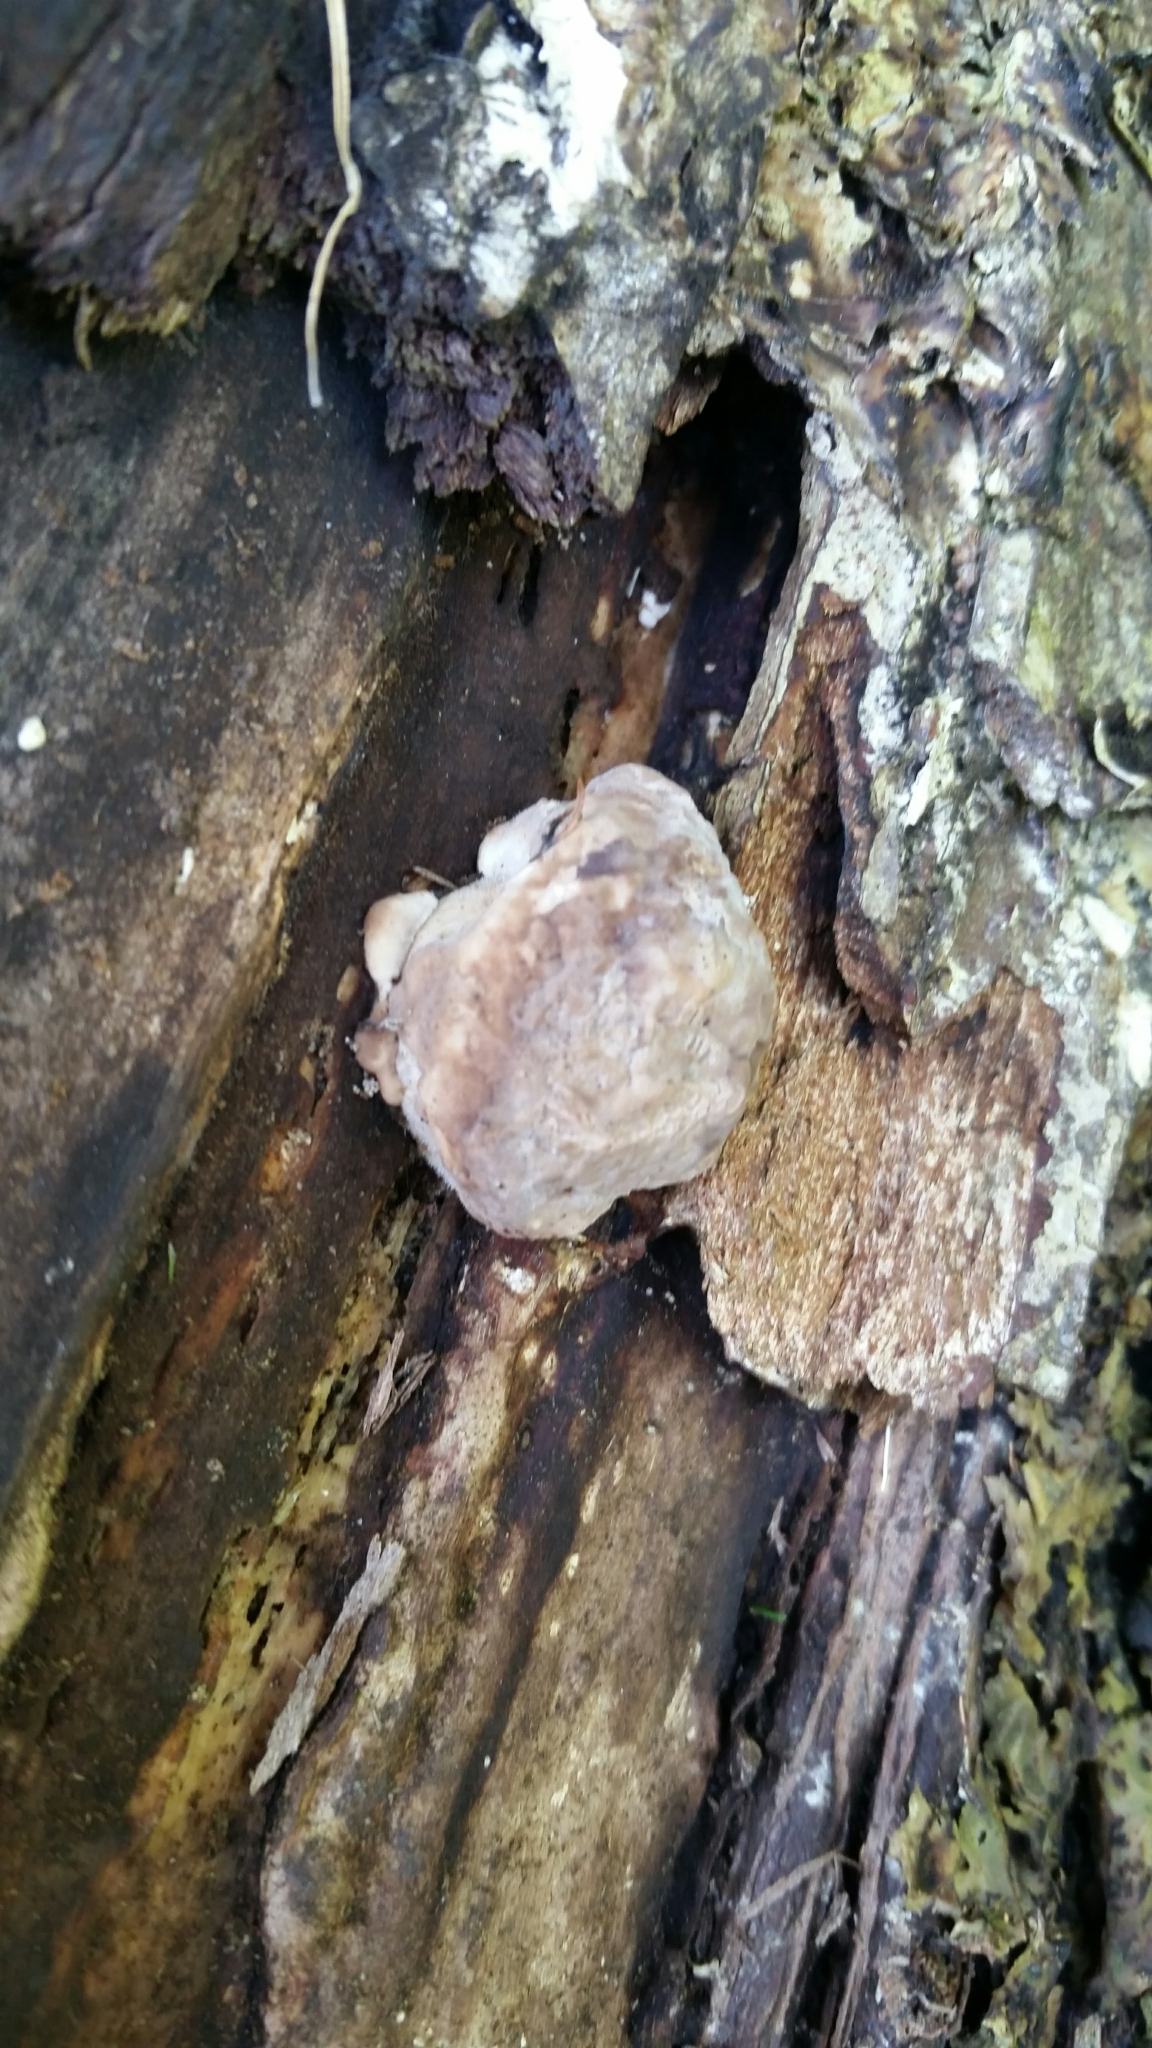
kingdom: Protozoa
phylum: Mycetozoa
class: Myxomycetes
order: Cribrariales
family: Tubiferaceae
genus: Reticularia
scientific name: Reticularia lycoperdon
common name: False puffball
